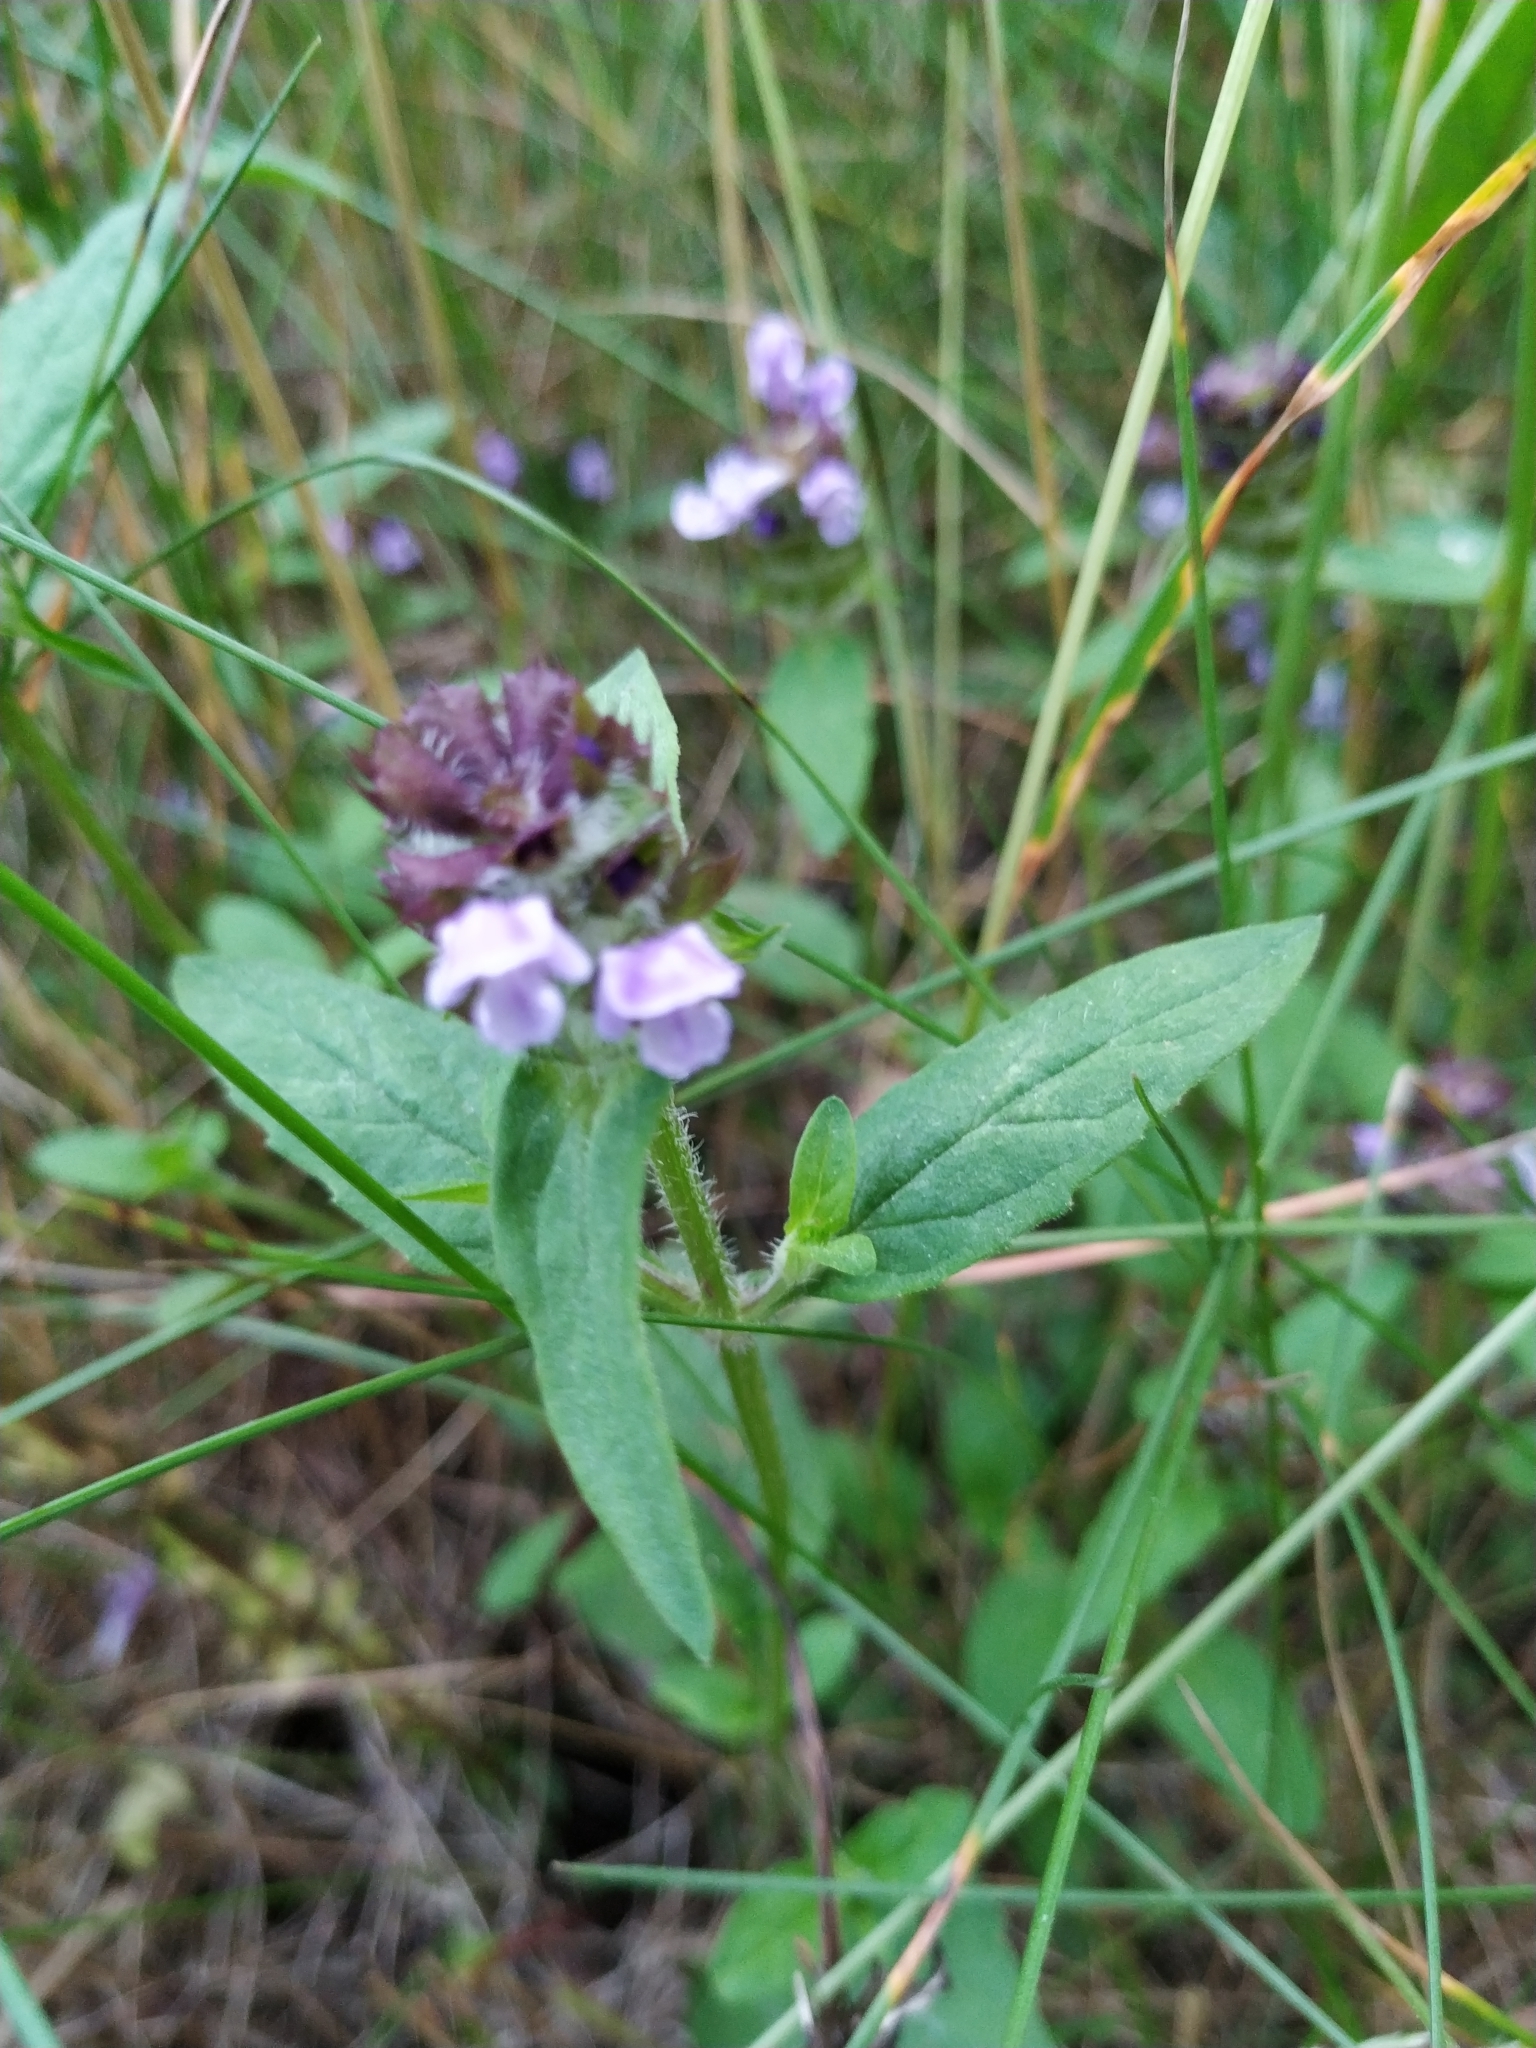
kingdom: Plantae
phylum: Tracheophyta
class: Magnoliopsida
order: Lamiales
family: Lamiaceae
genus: Prunella
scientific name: Prunella vulgaris
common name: Heal-all
